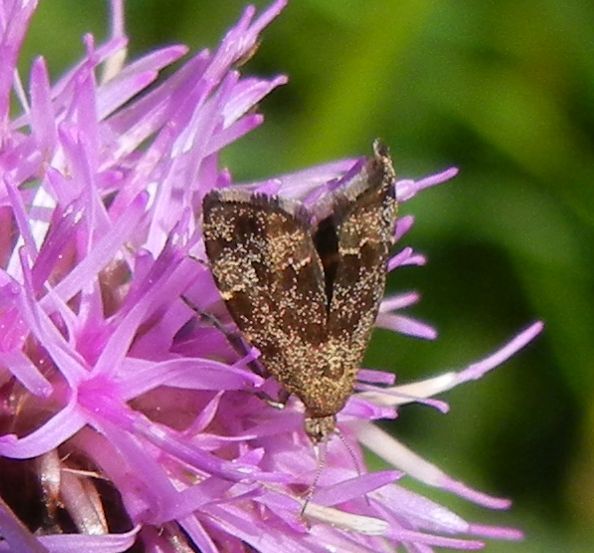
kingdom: Animalia
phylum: Arthropoda
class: Insecta
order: Lepidoptera
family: Choreutidae
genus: Anthophila
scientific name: Anthophila fabriciana
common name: Nettle-tap
